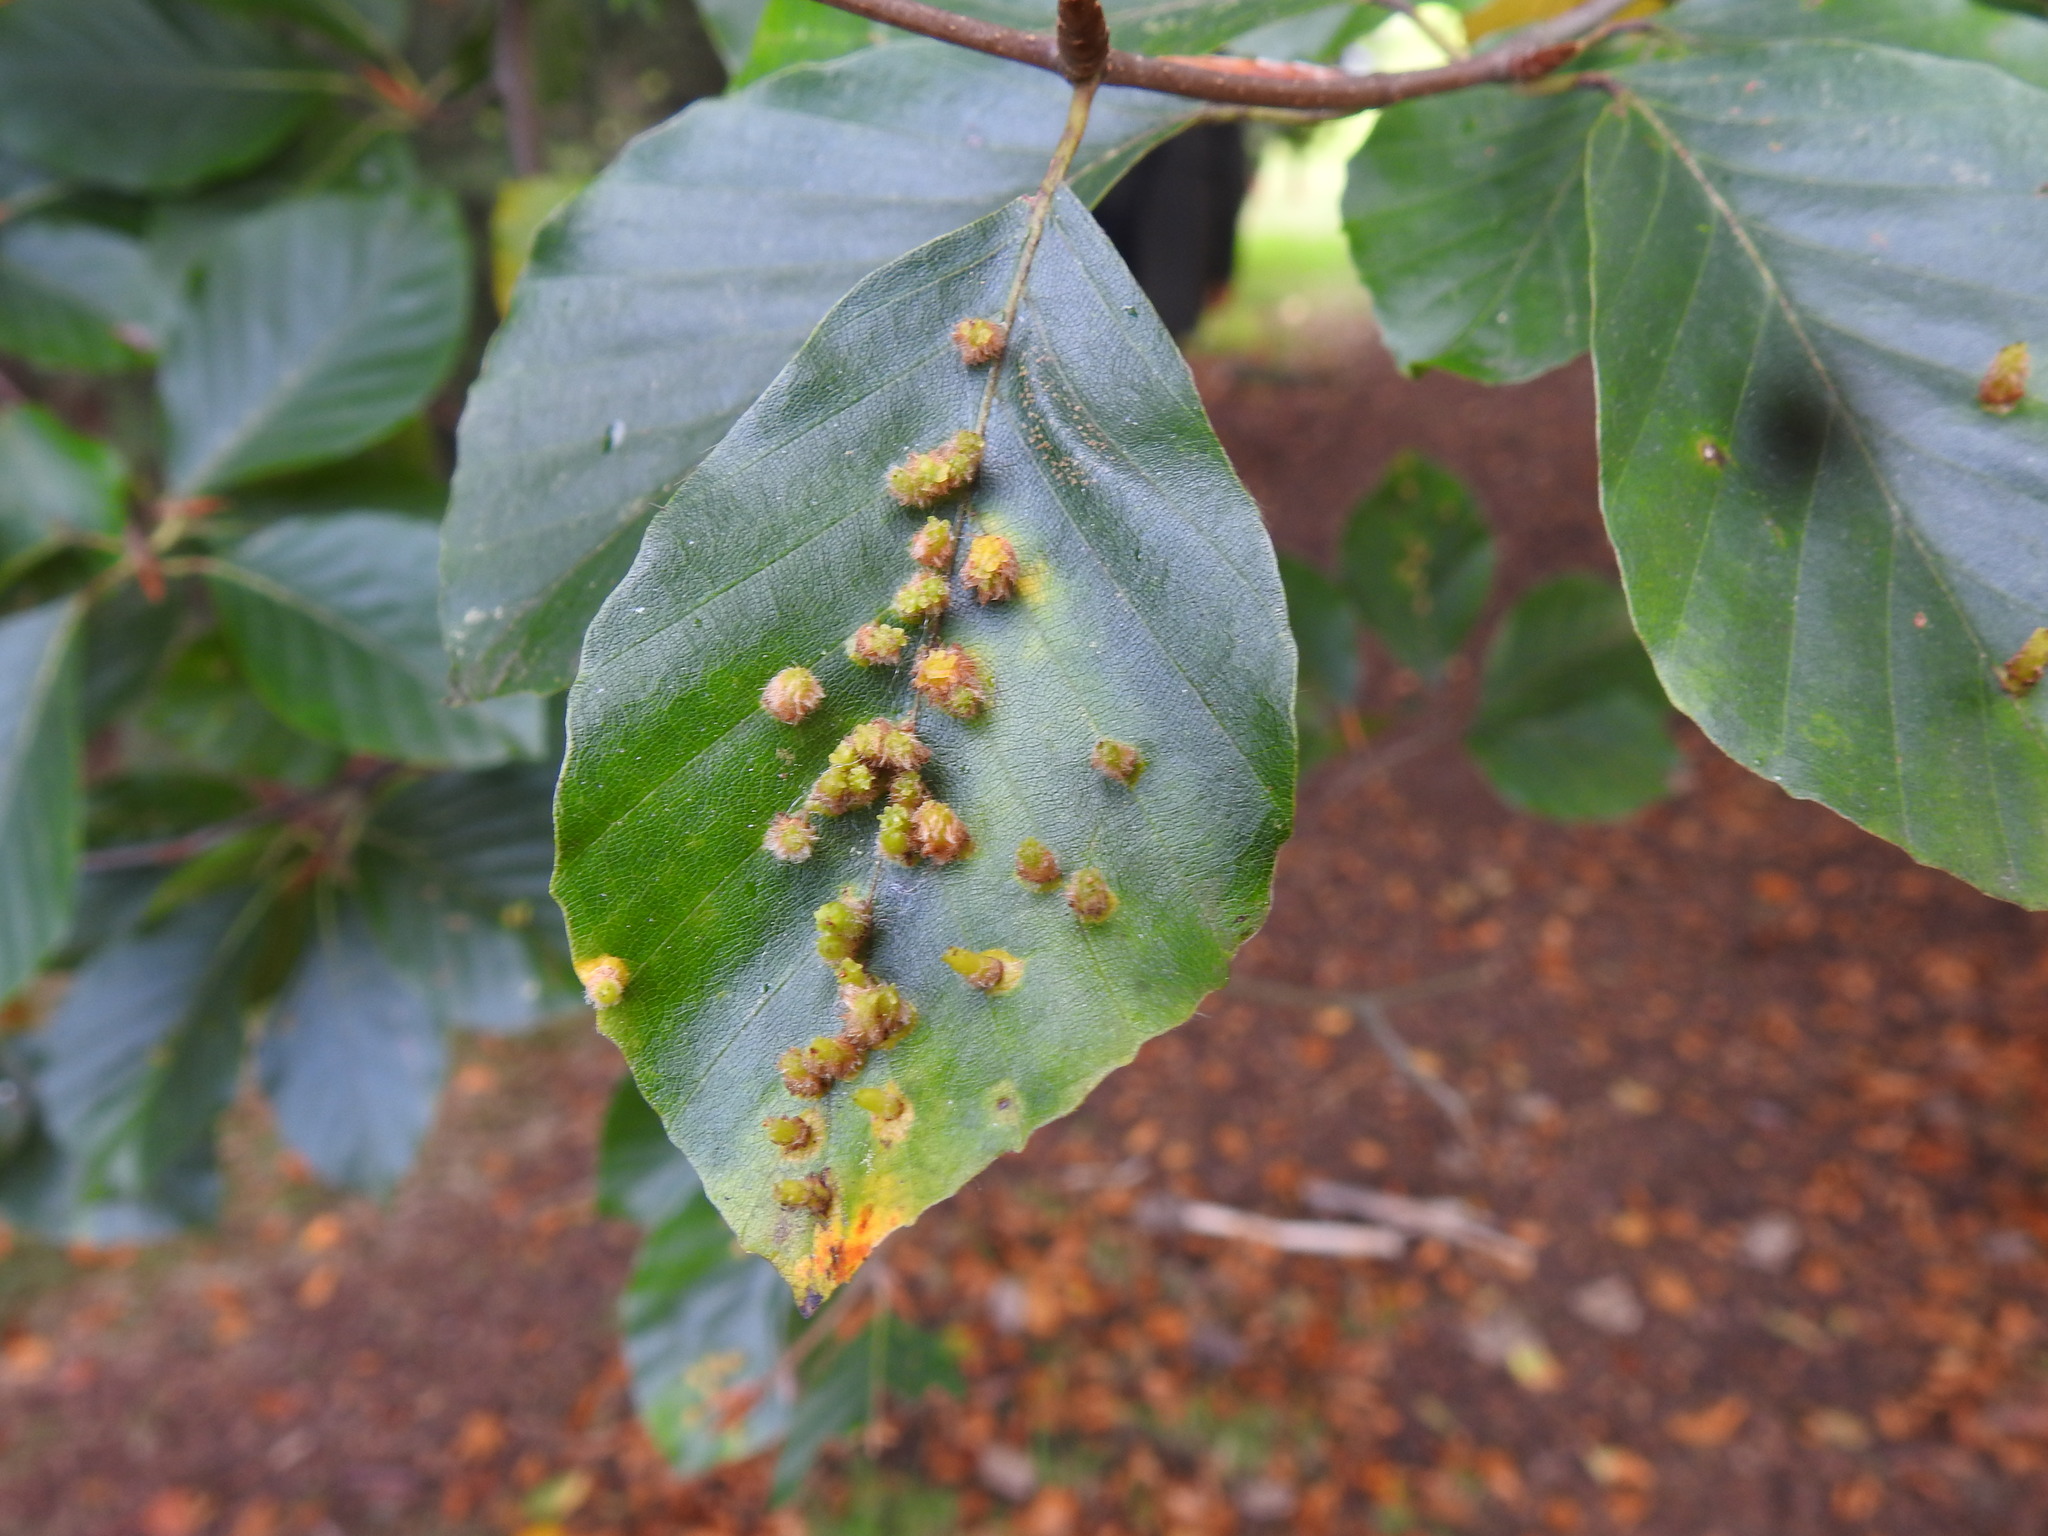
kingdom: Animalia
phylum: Arthropoda
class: Insecta
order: Diptera
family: Cecidomyiidae
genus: Hartigiola
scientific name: Hartigiola annulipes
